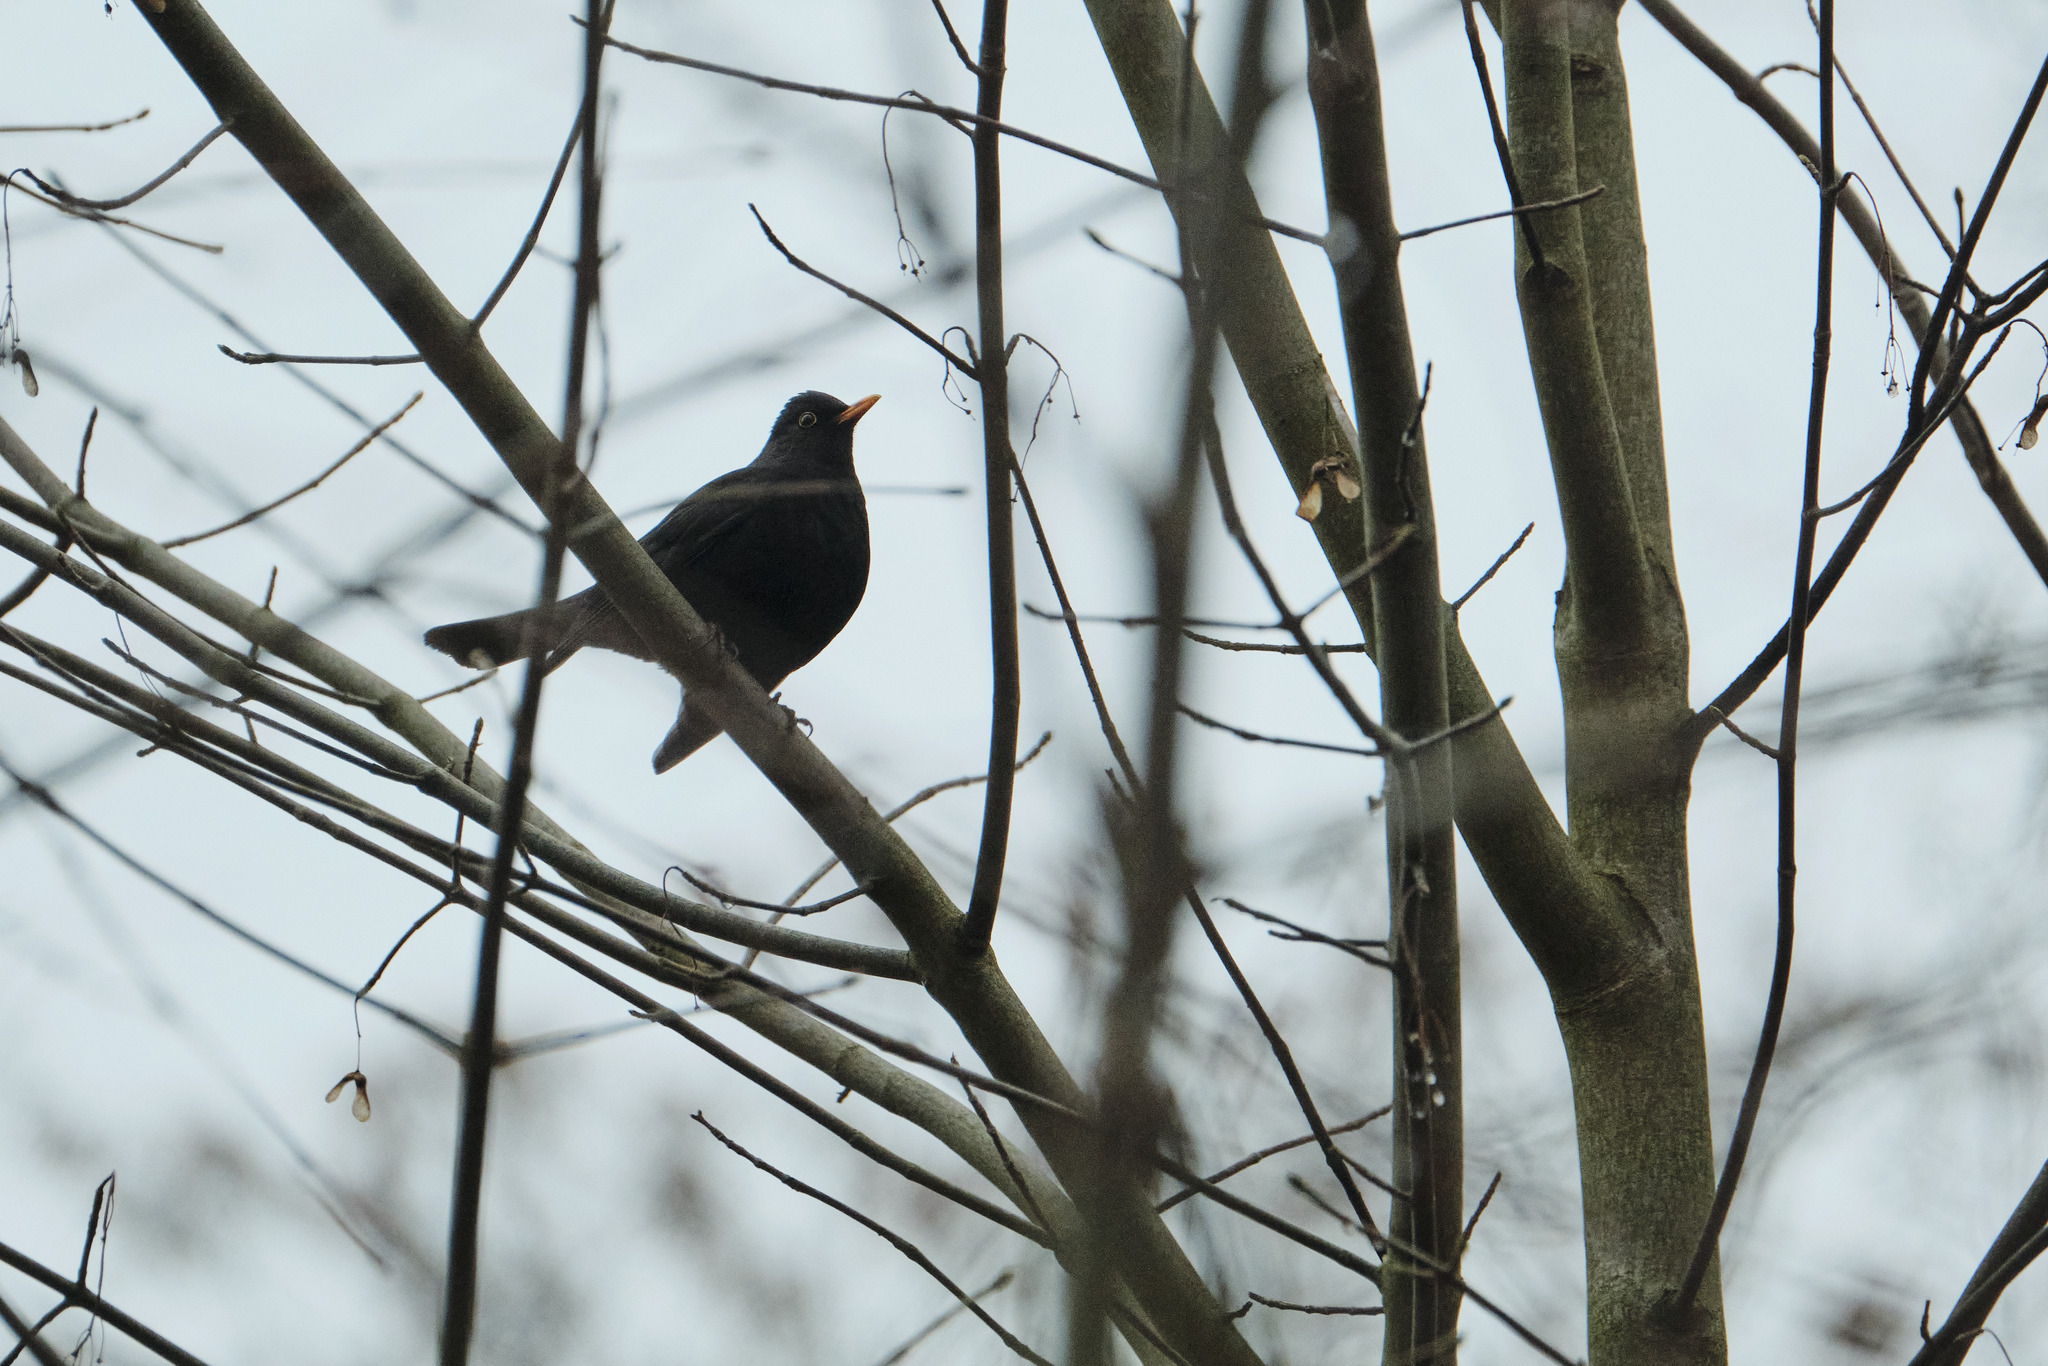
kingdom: Animalia
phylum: Chordata
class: Aves
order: Passeriformes
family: Turdidae
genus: Turdus
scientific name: Turdus merula
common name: Common blackbird
